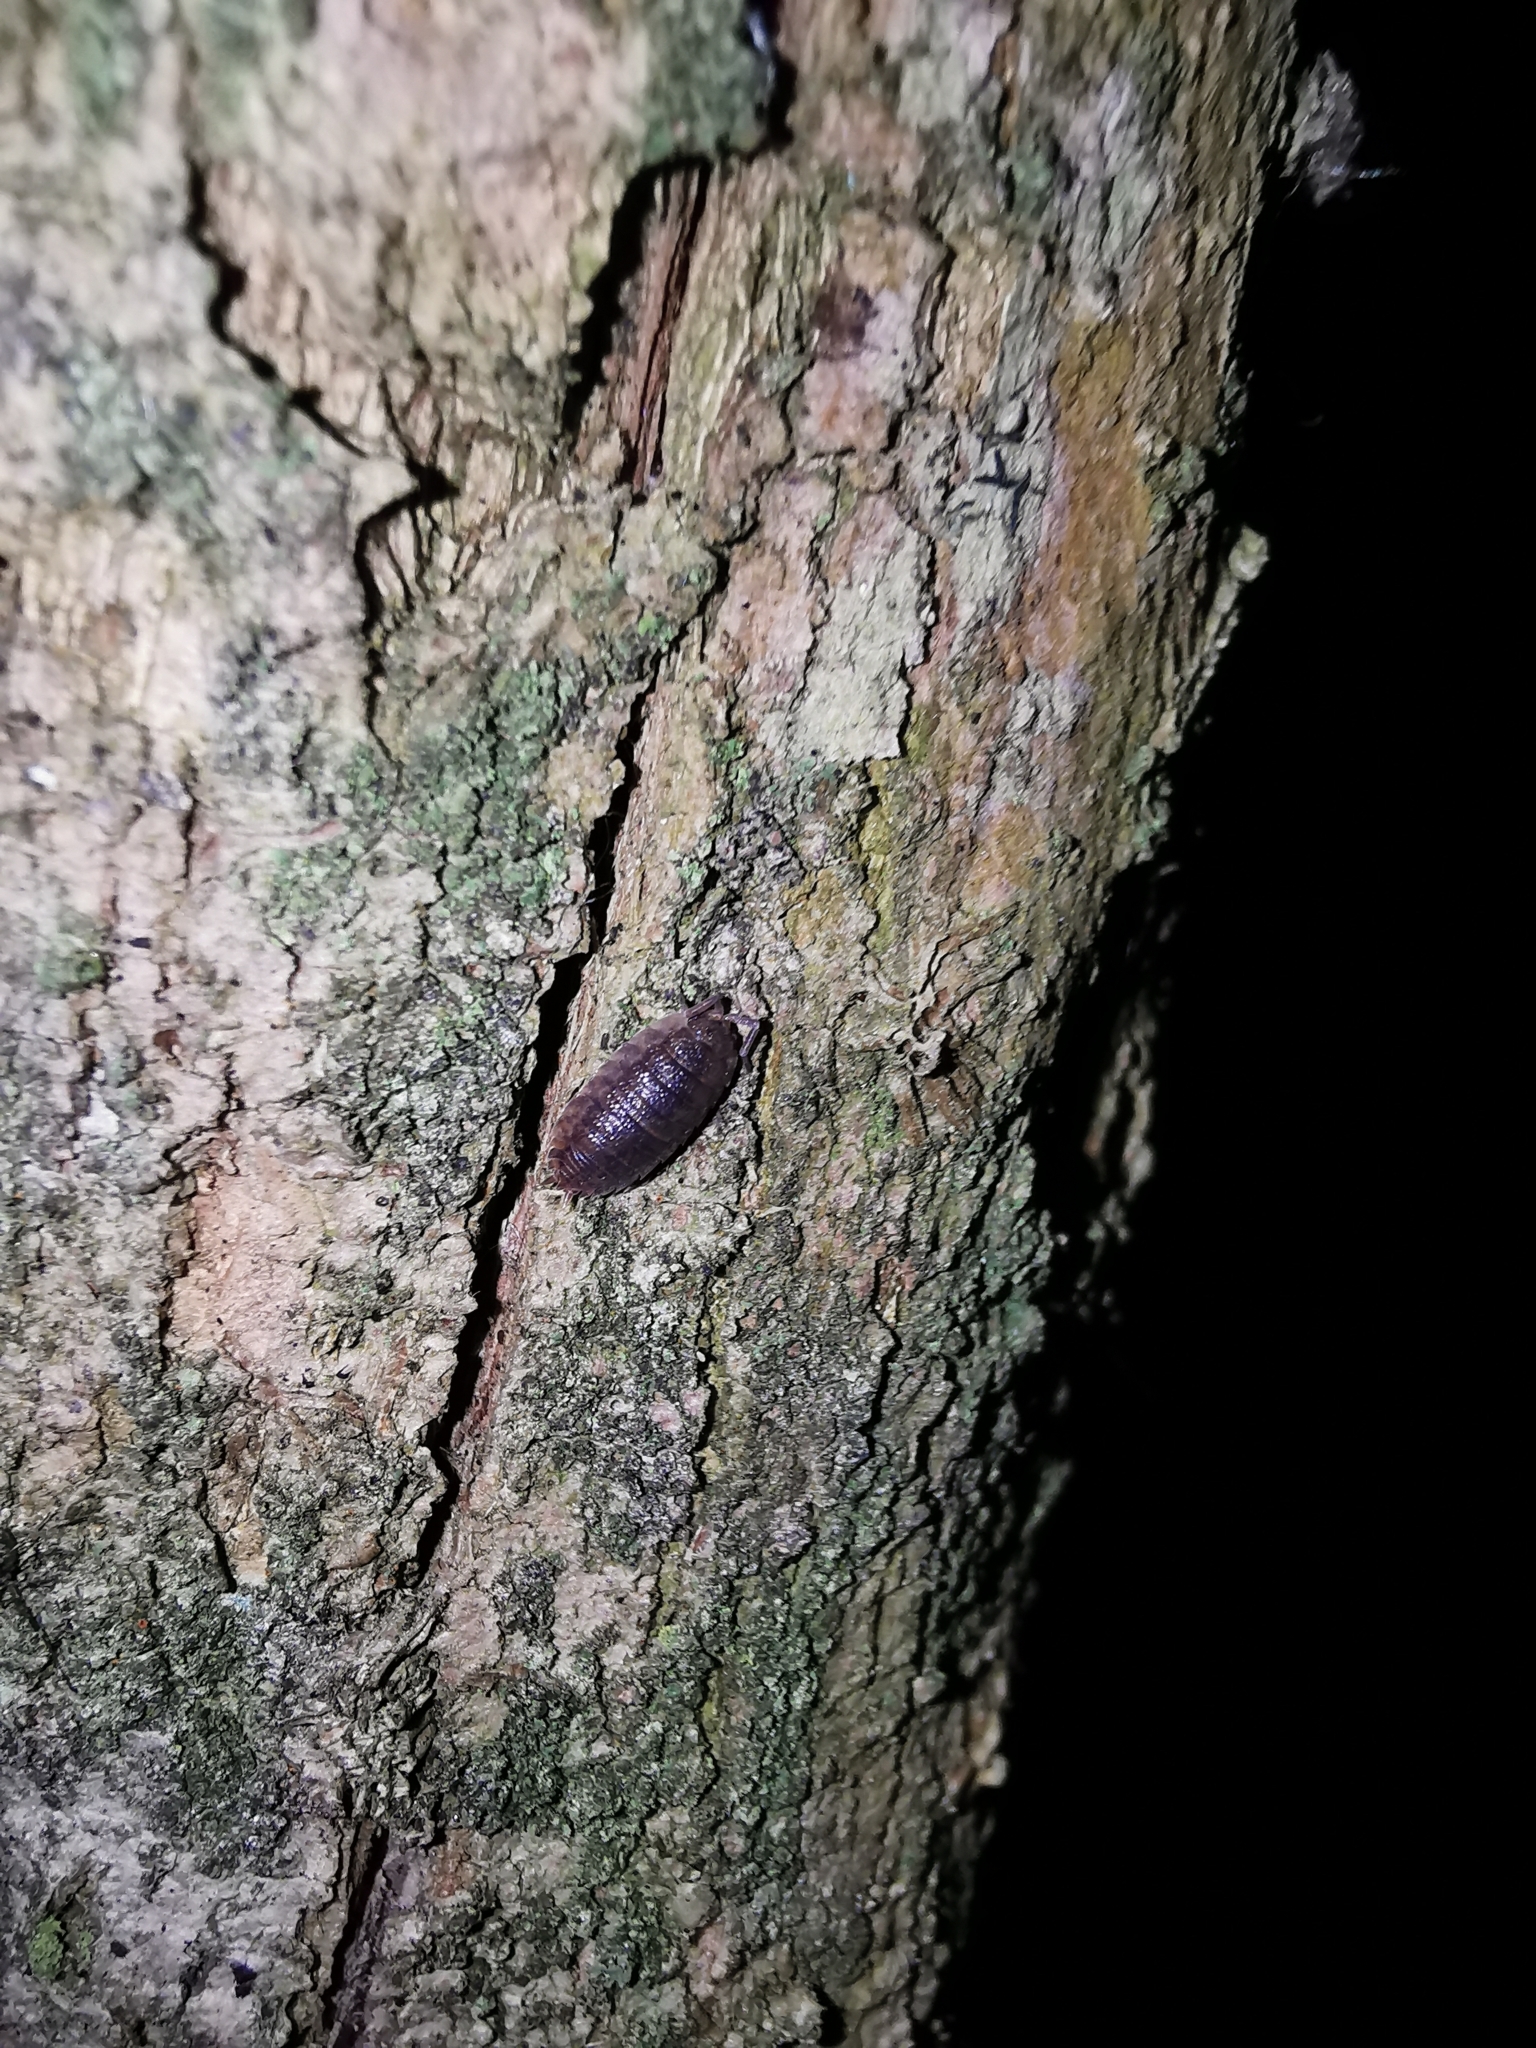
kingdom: Animalia
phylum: Arthropoda
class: Malacostraca
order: Isopoda
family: Porcellionidae
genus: Porcellio
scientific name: Porcellio scaber
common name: Common rough woodlouse
